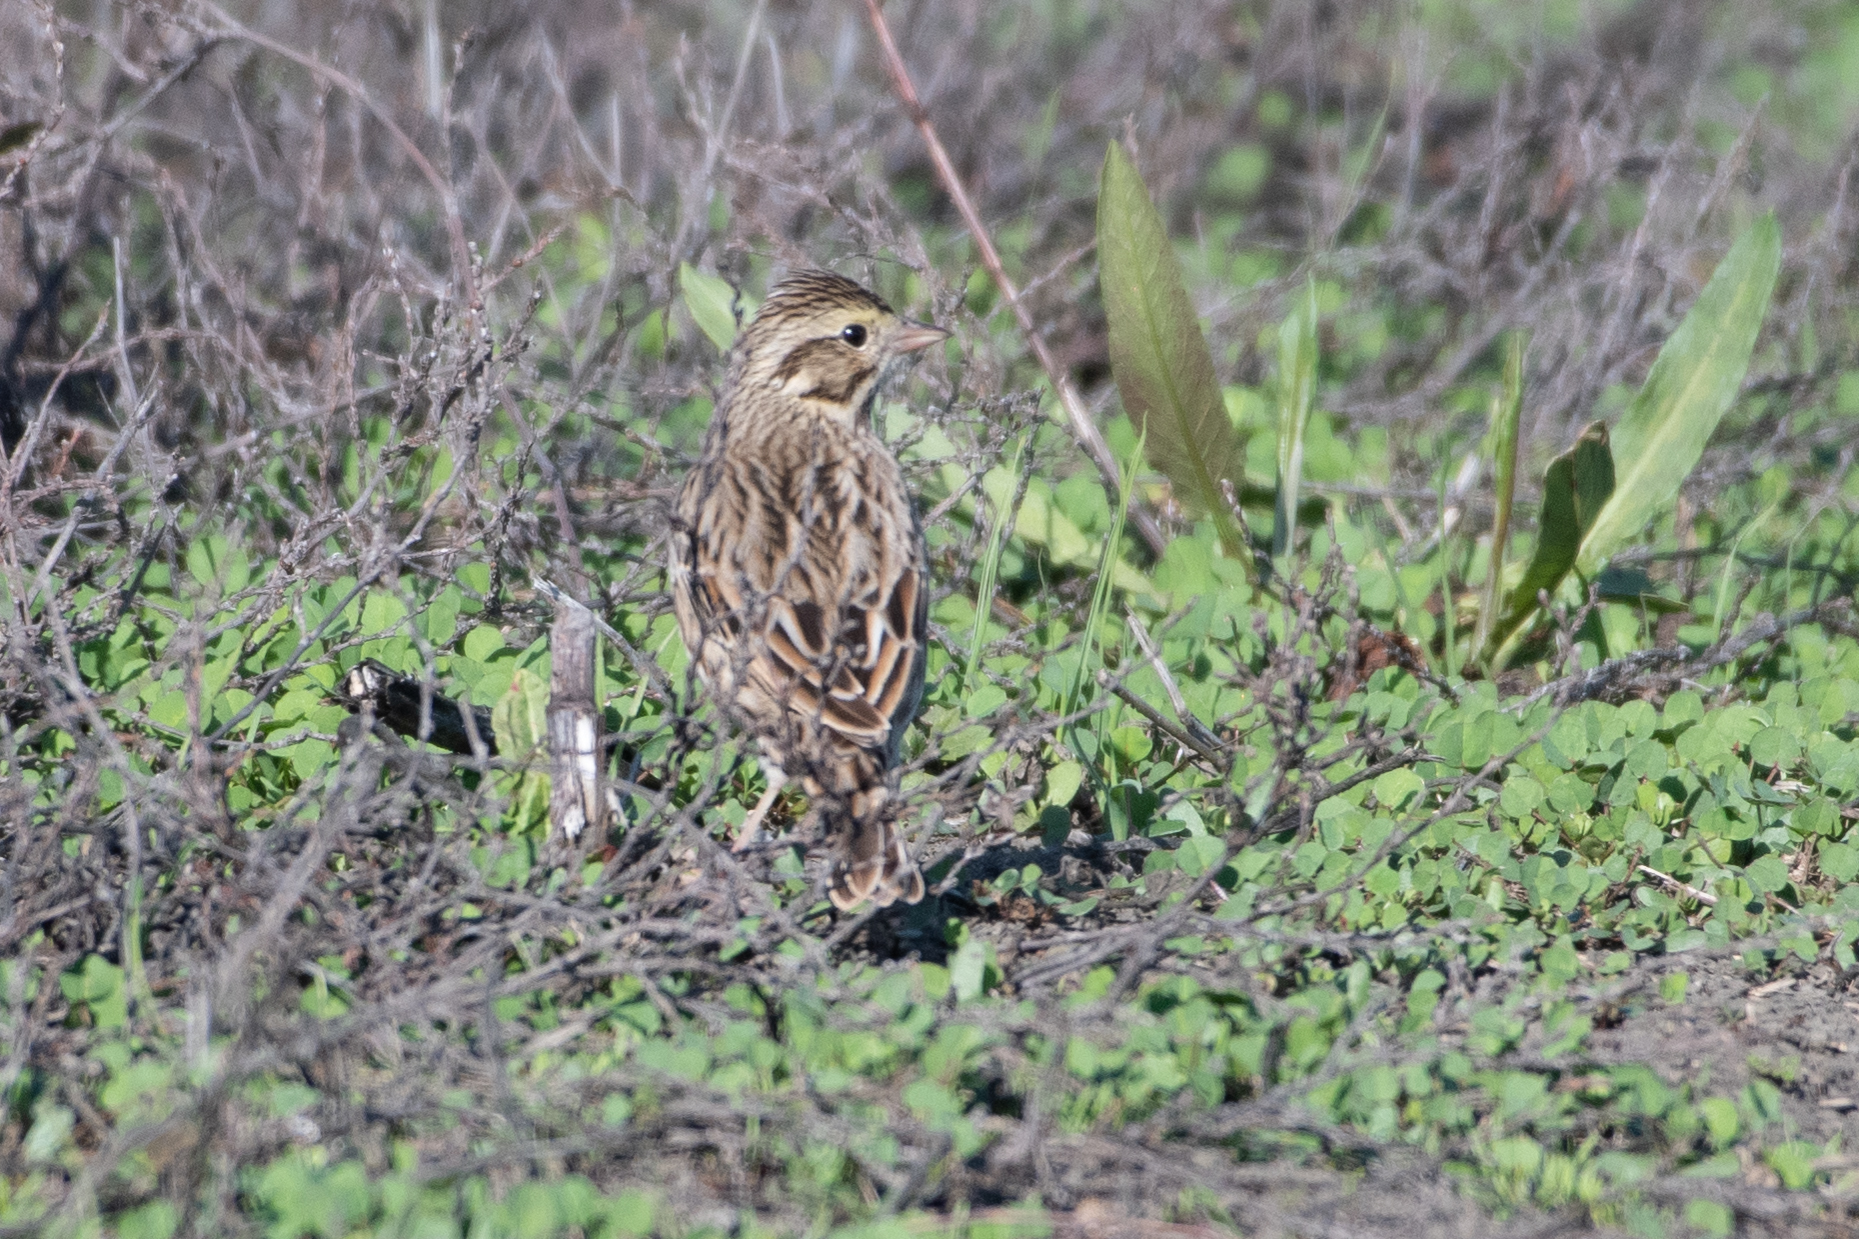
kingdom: Animalia
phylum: Chordata
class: Aves
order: Passeriformes
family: Passerellidae
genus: Passerculus
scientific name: Passerculus sandwichensis
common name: Savannah sparrow
